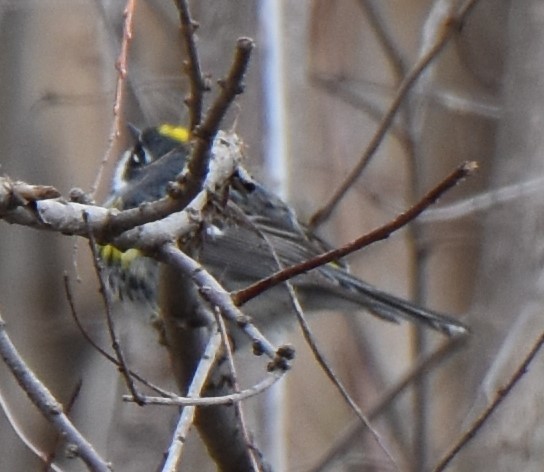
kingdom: Animalia
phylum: Chordata
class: Aves
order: Passeriformes
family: Parulidae
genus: Setophaga
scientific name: Setophaga coronata
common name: Myrtle warbler
